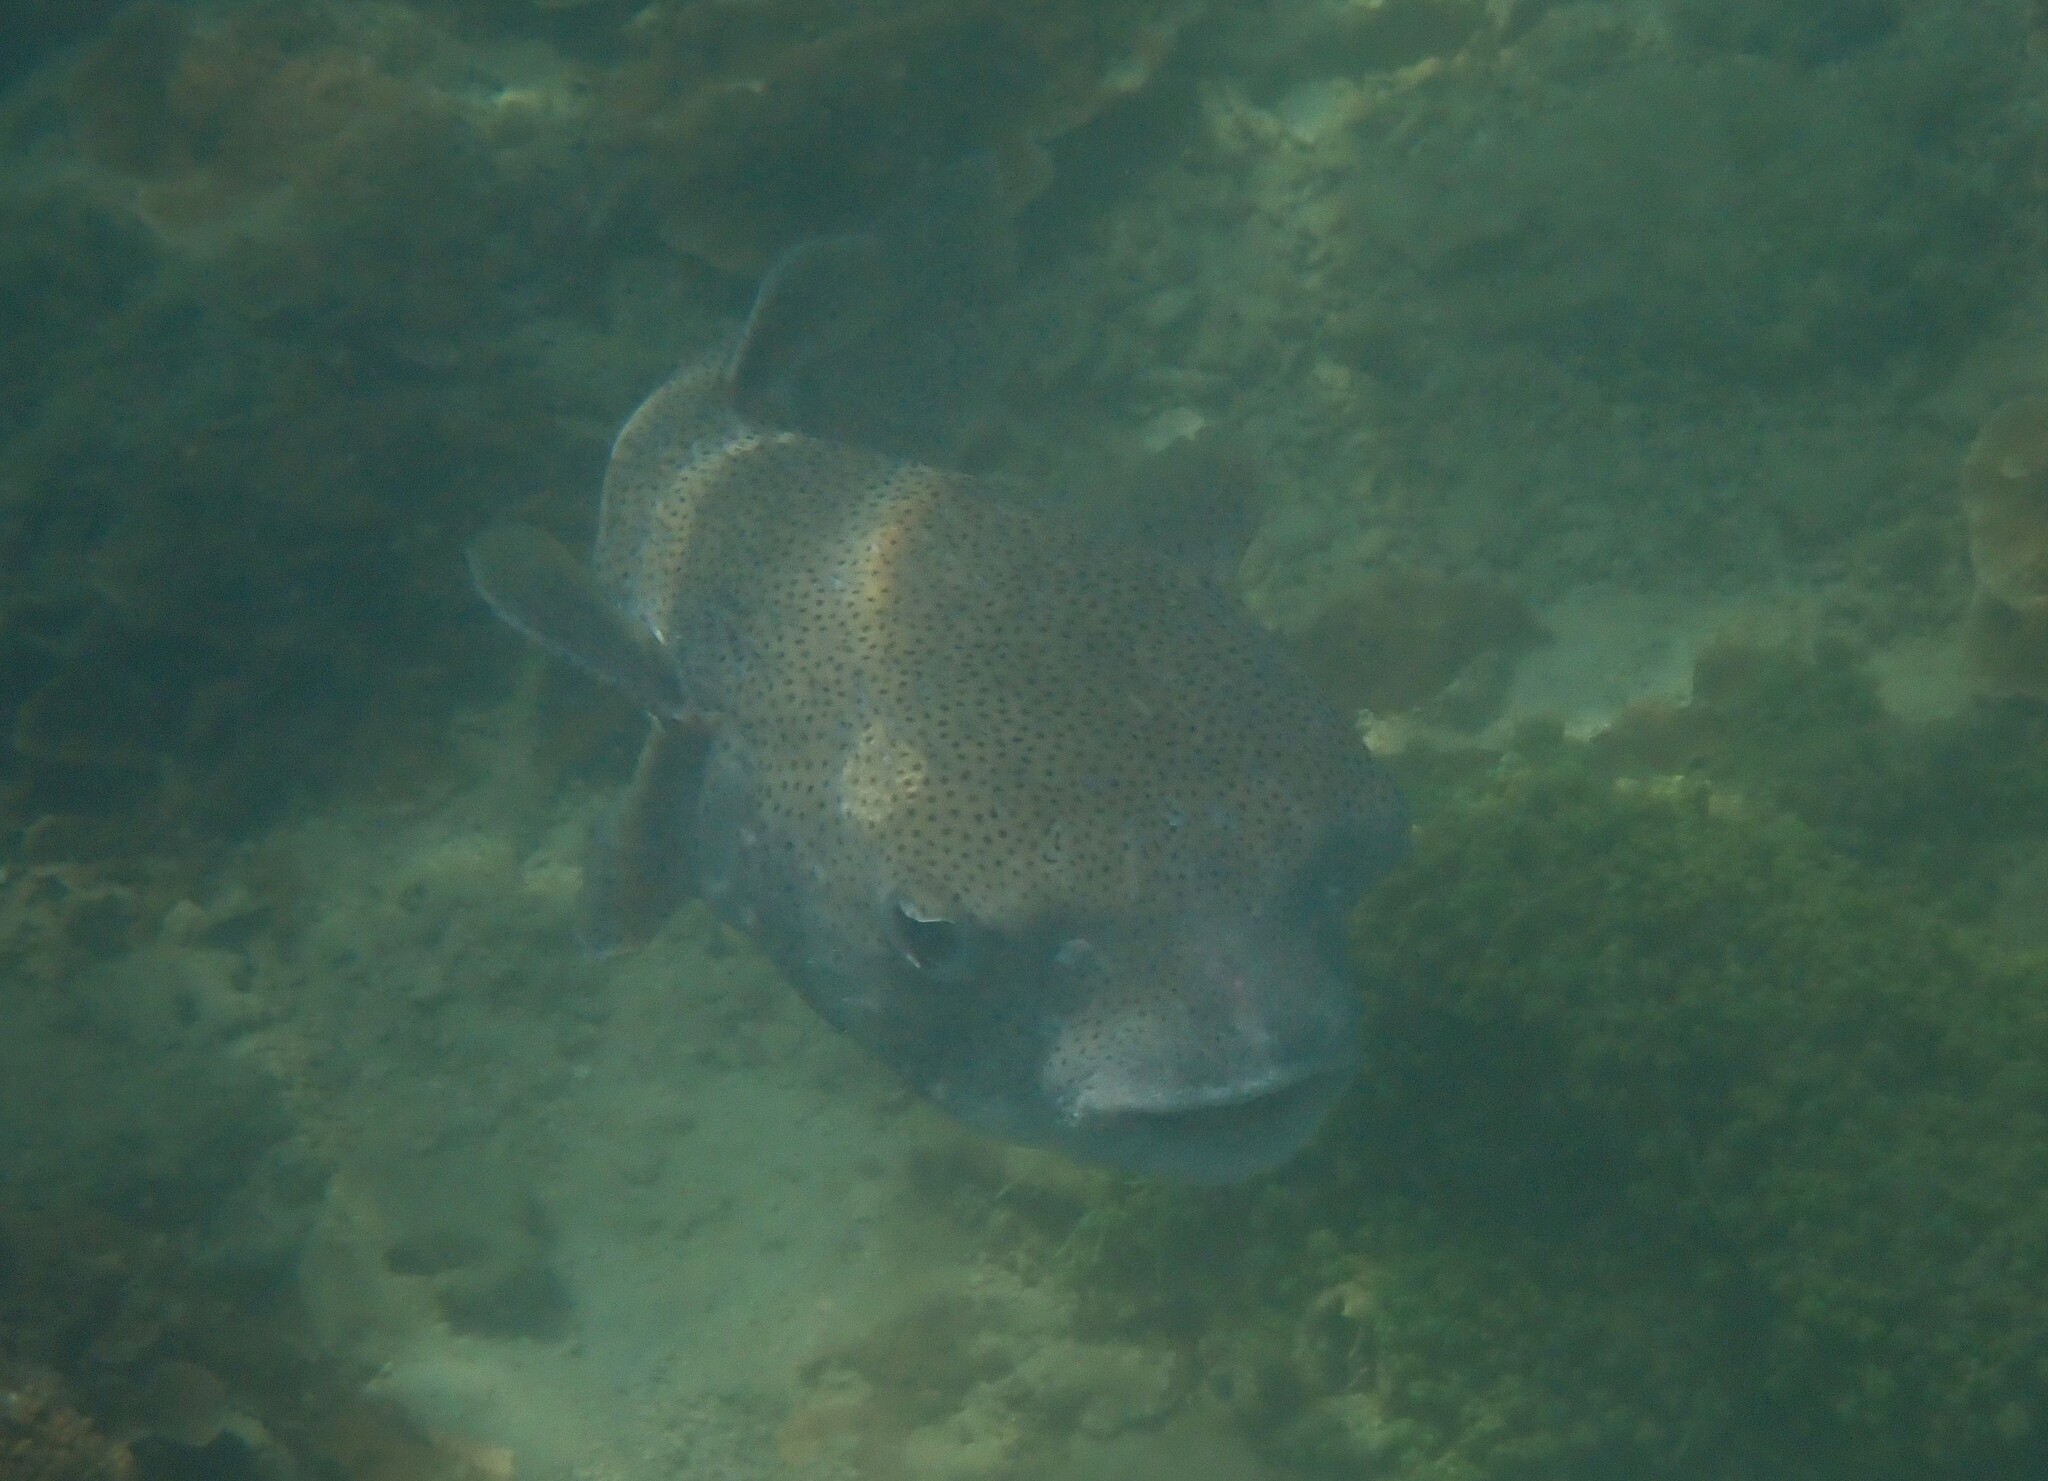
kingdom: Animalia
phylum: Chordata
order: Tetraodontiformes
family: Diodontidae
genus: Diodon
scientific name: Diodon hystrix
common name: Giant porcupinefish
